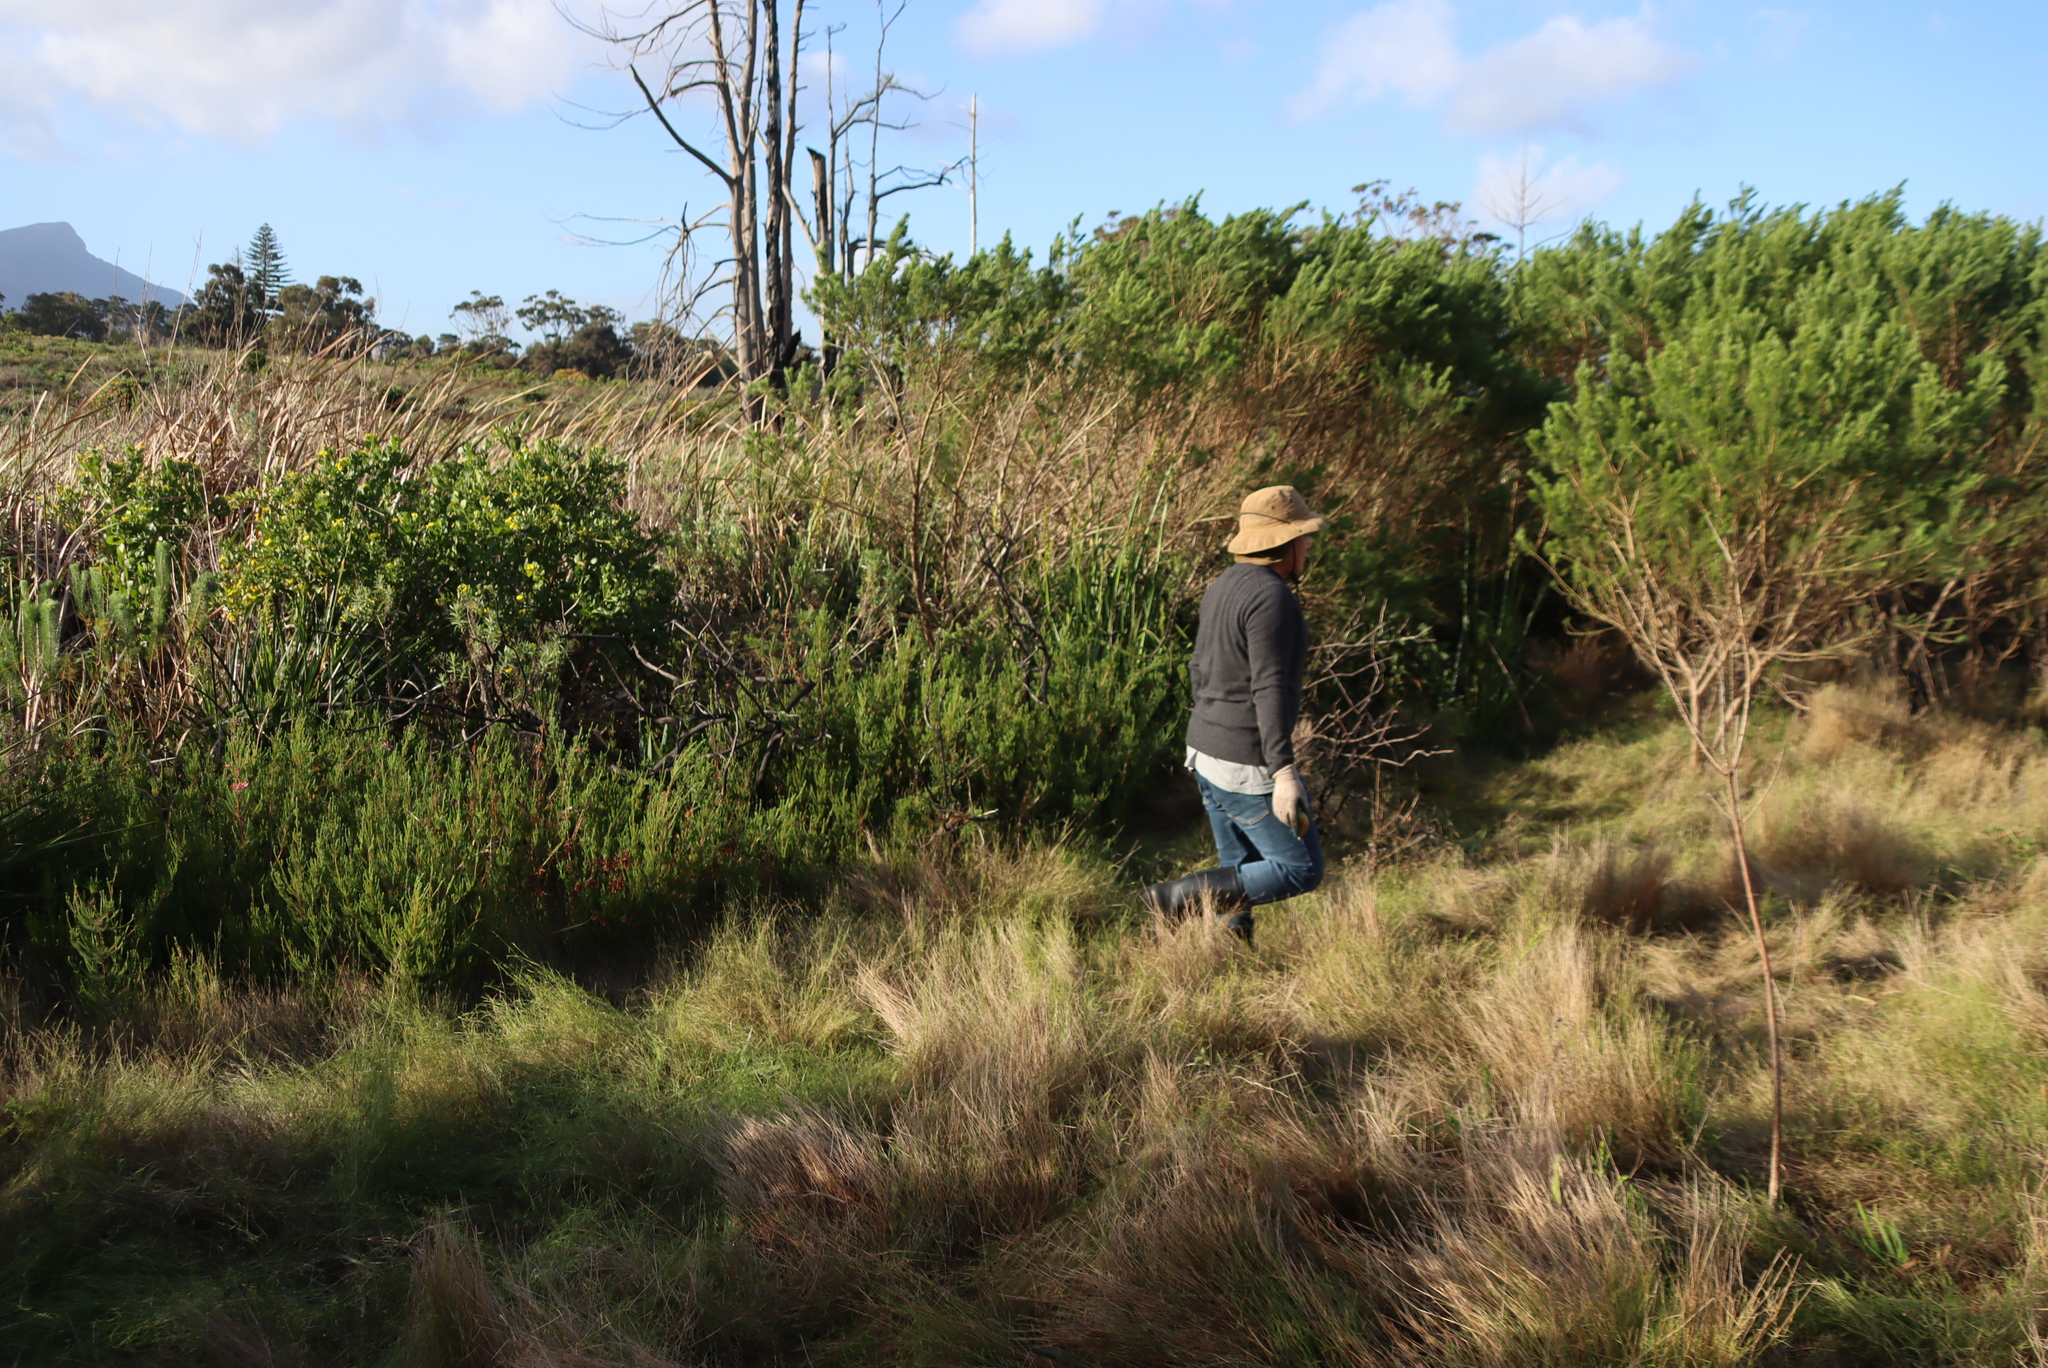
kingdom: Plantae
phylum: Tracheophyta
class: Magnoliopsida
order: Fabales
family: Fabaceae
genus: Psoralea
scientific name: Psoralea pinnata
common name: African scurfpea
